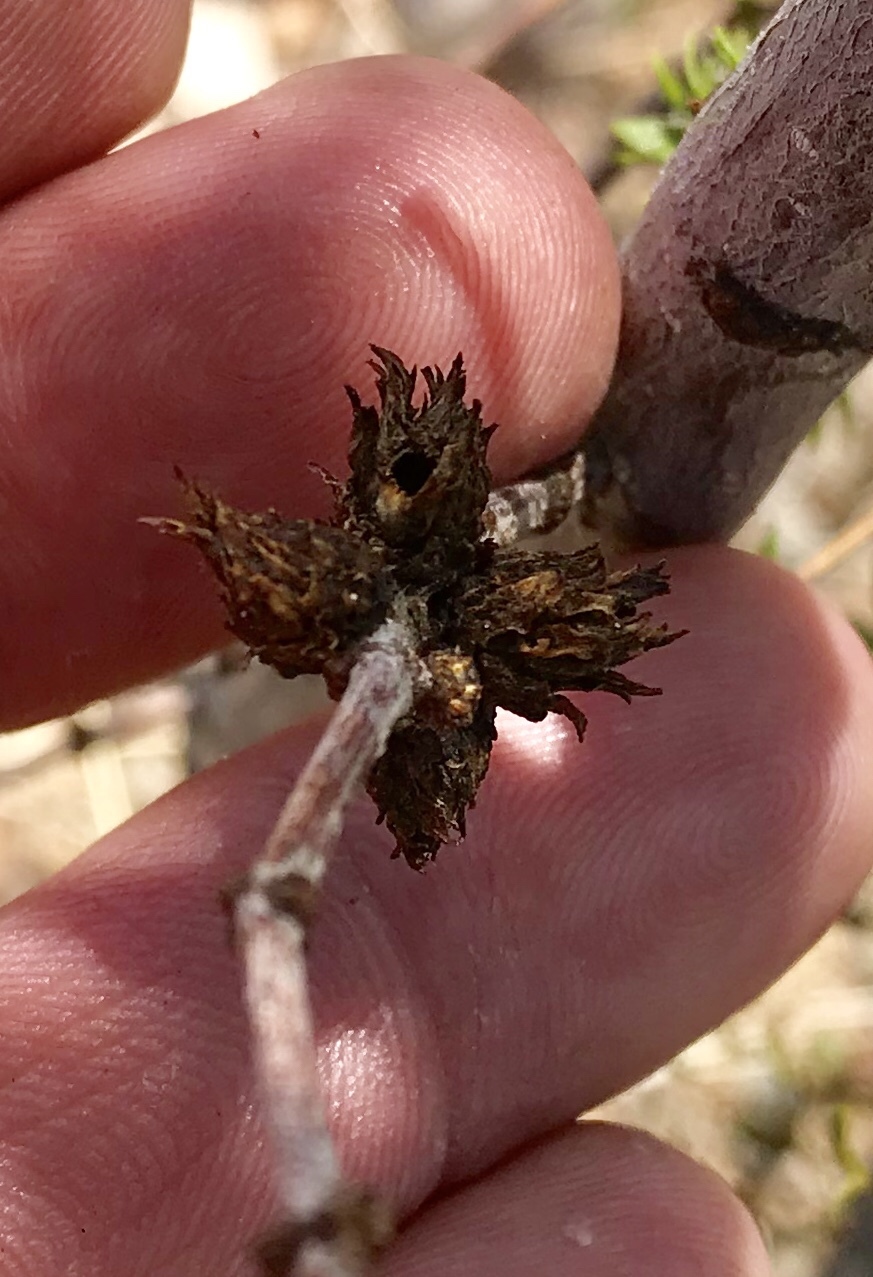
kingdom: Animalia
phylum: Arthropoda
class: Insecta
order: Diptera
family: Cecidomyiidae
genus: Asphondylia
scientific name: Asphondylia foliosa
